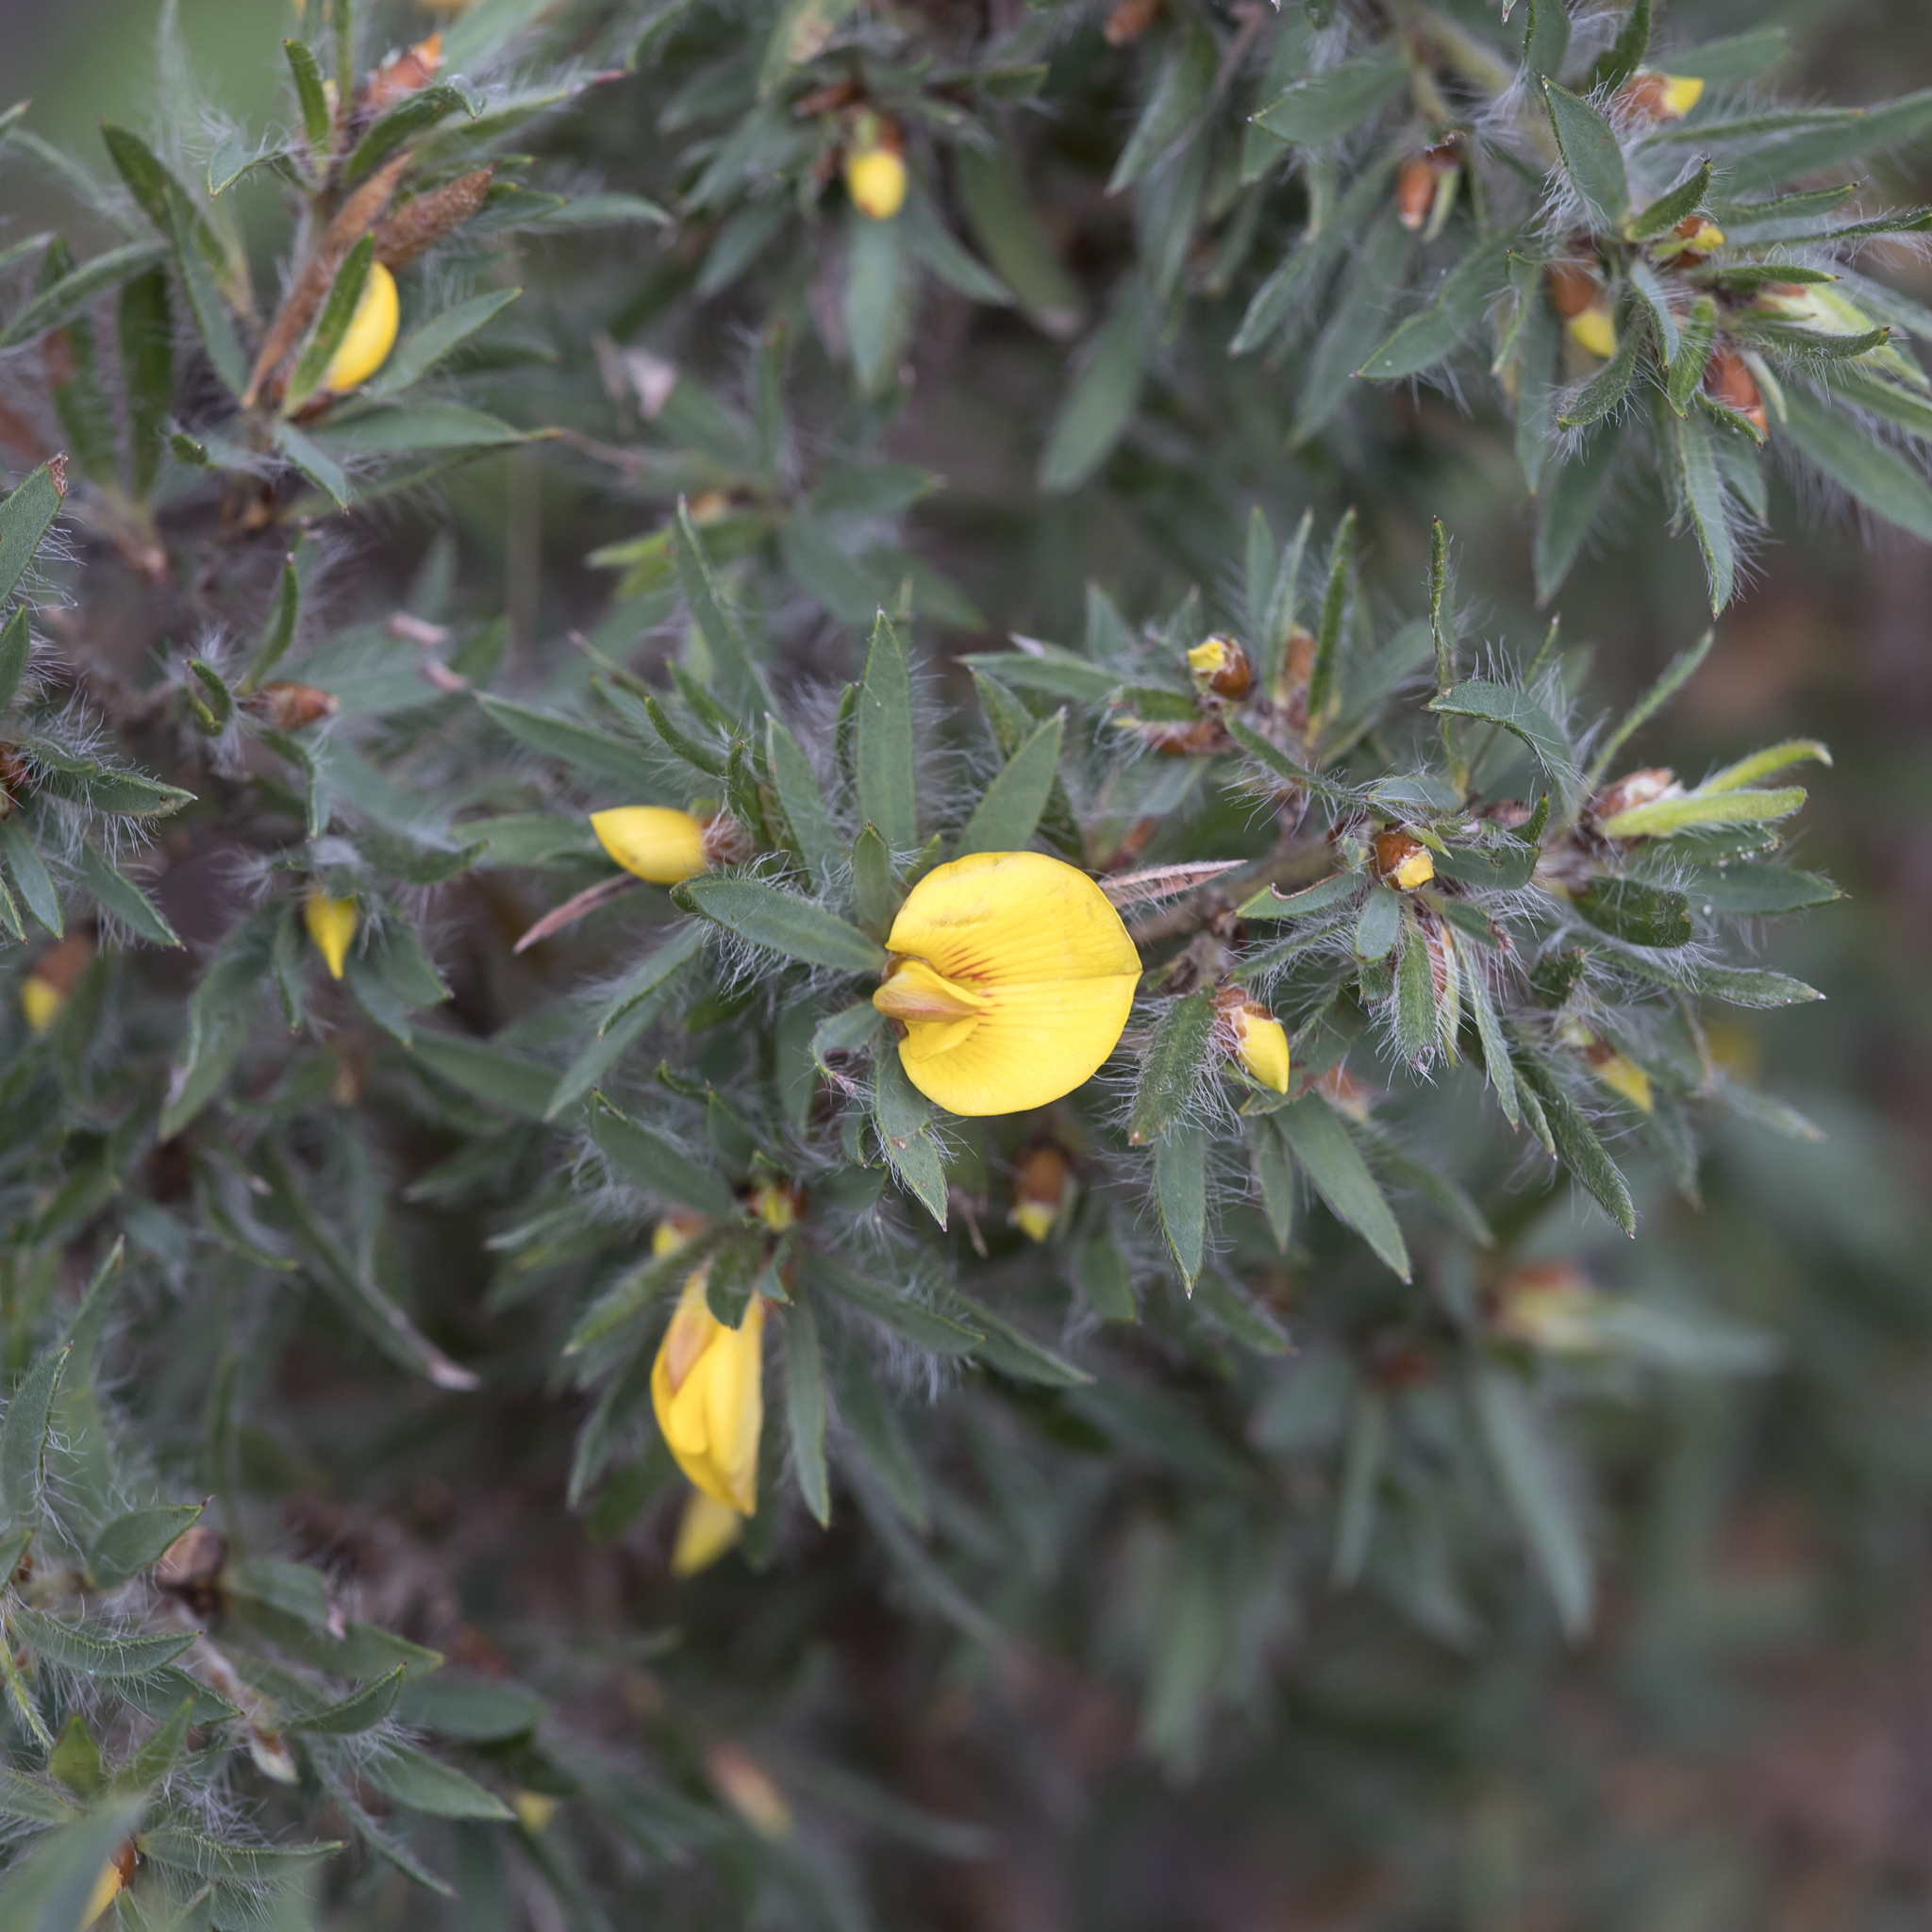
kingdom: Plantae
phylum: Tracheophyta
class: Magnoliopsida
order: Fabales
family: Fabaceae
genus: Pultenaea
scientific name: Pultenaea involucrata
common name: Mount lofty bush-pea
